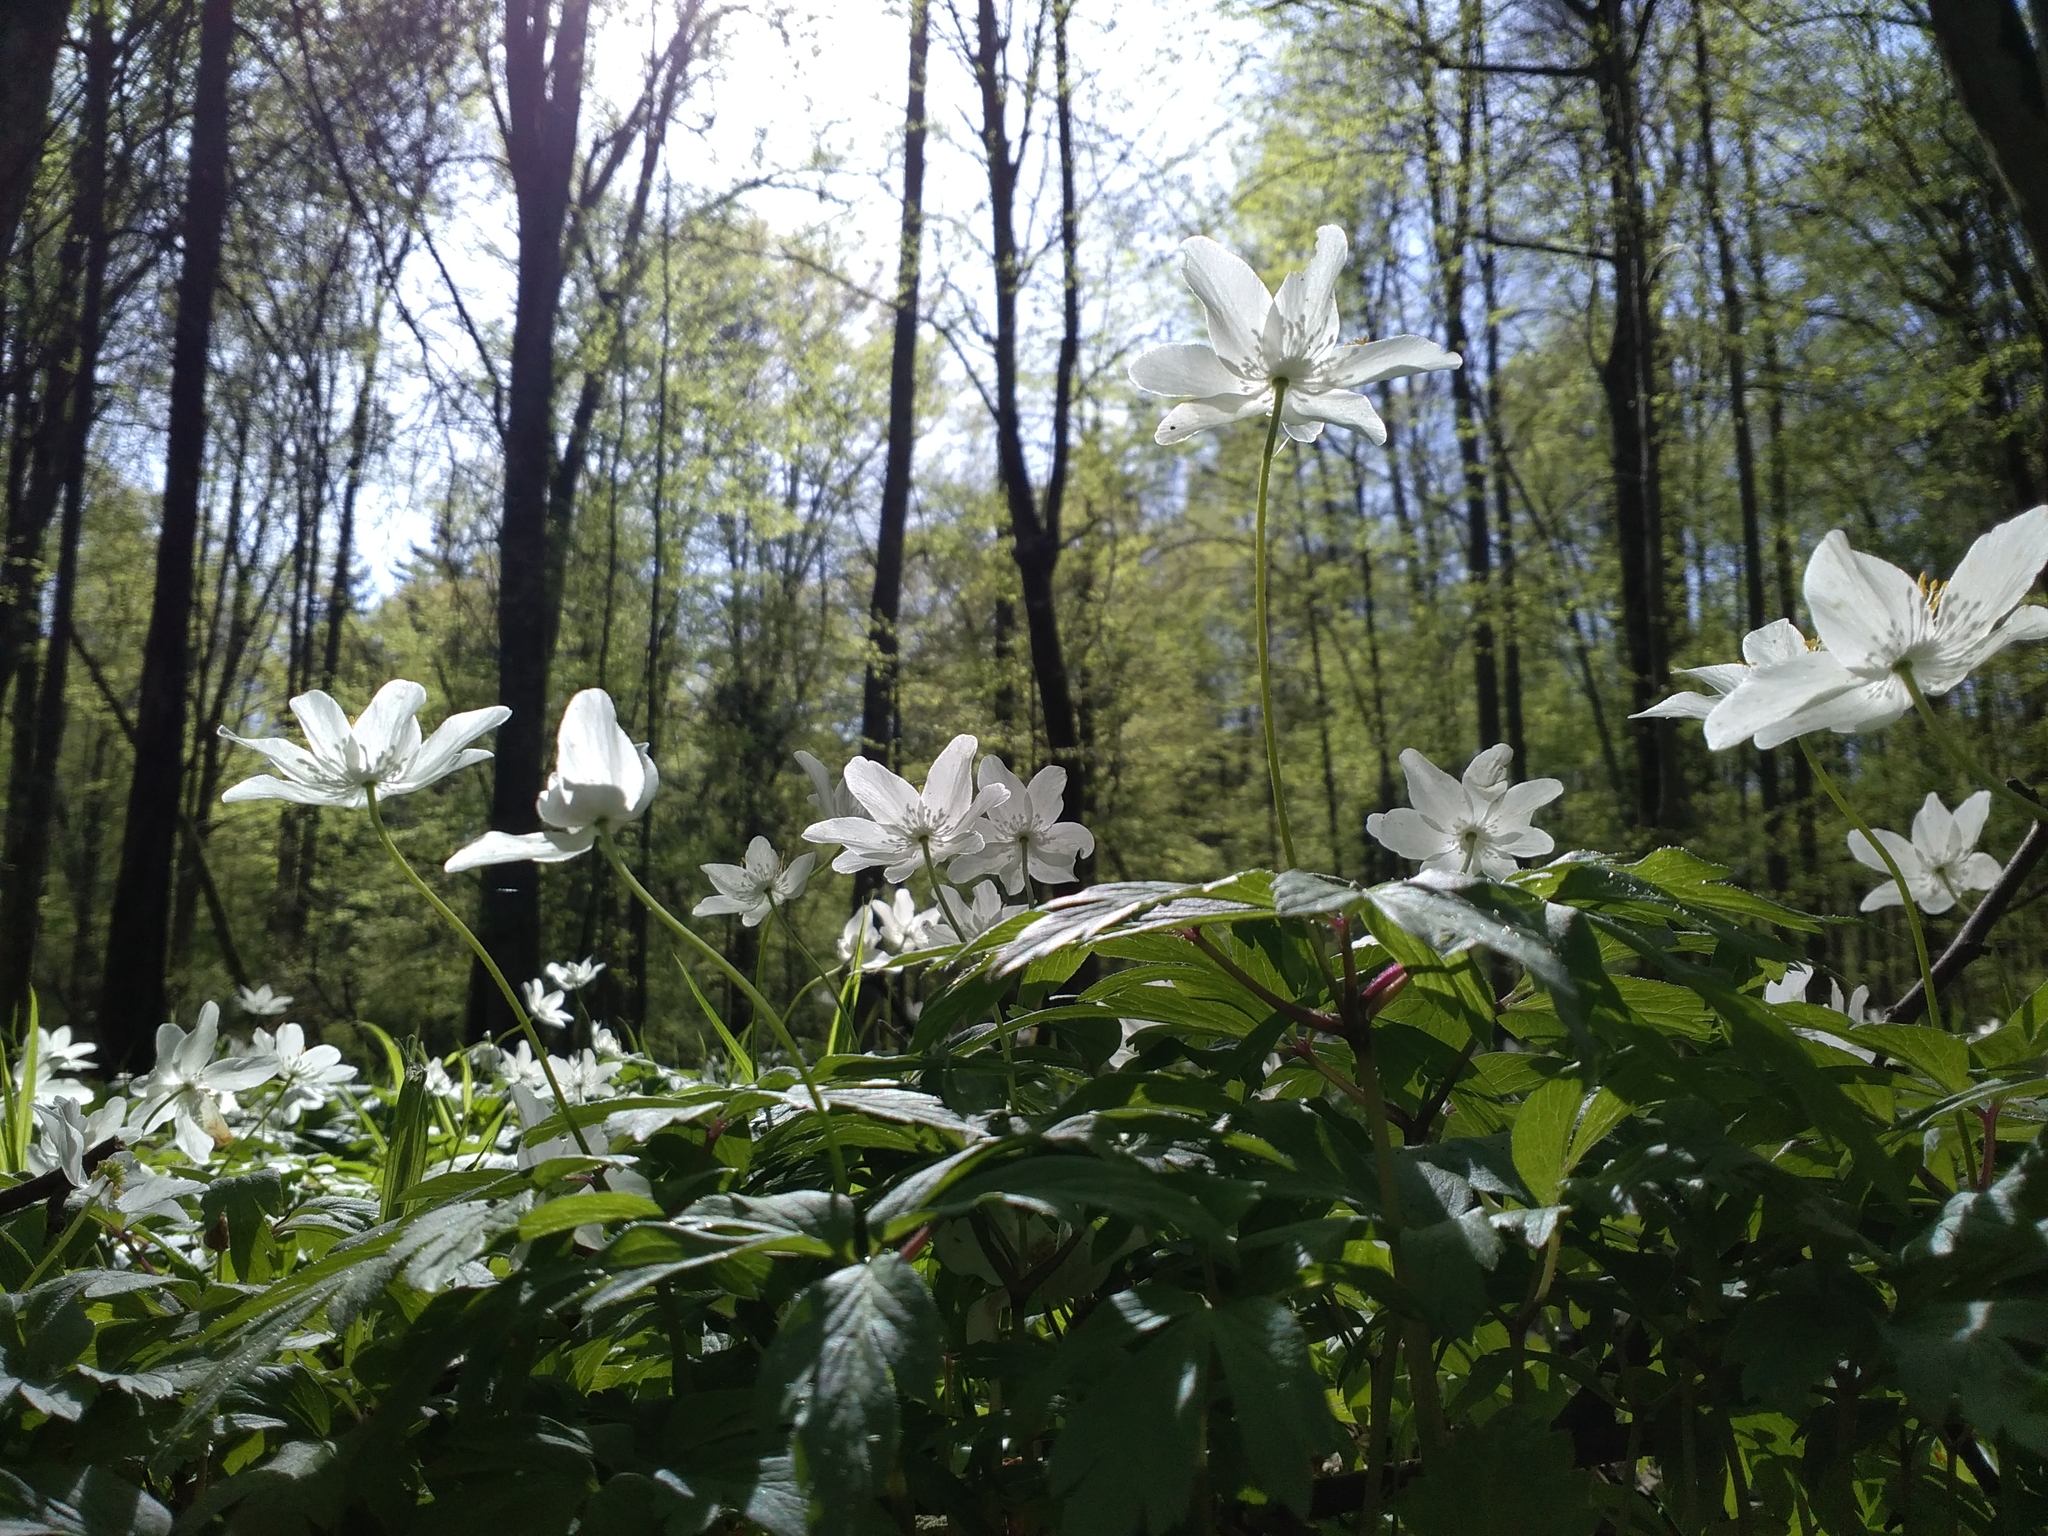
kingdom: Plantae
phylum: Tracheophyta
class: Magnoliopsida
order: Ranunculales
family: Ranunculaceae
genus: Anemone
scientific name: Anemone nemorosa
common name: Wood anemone
